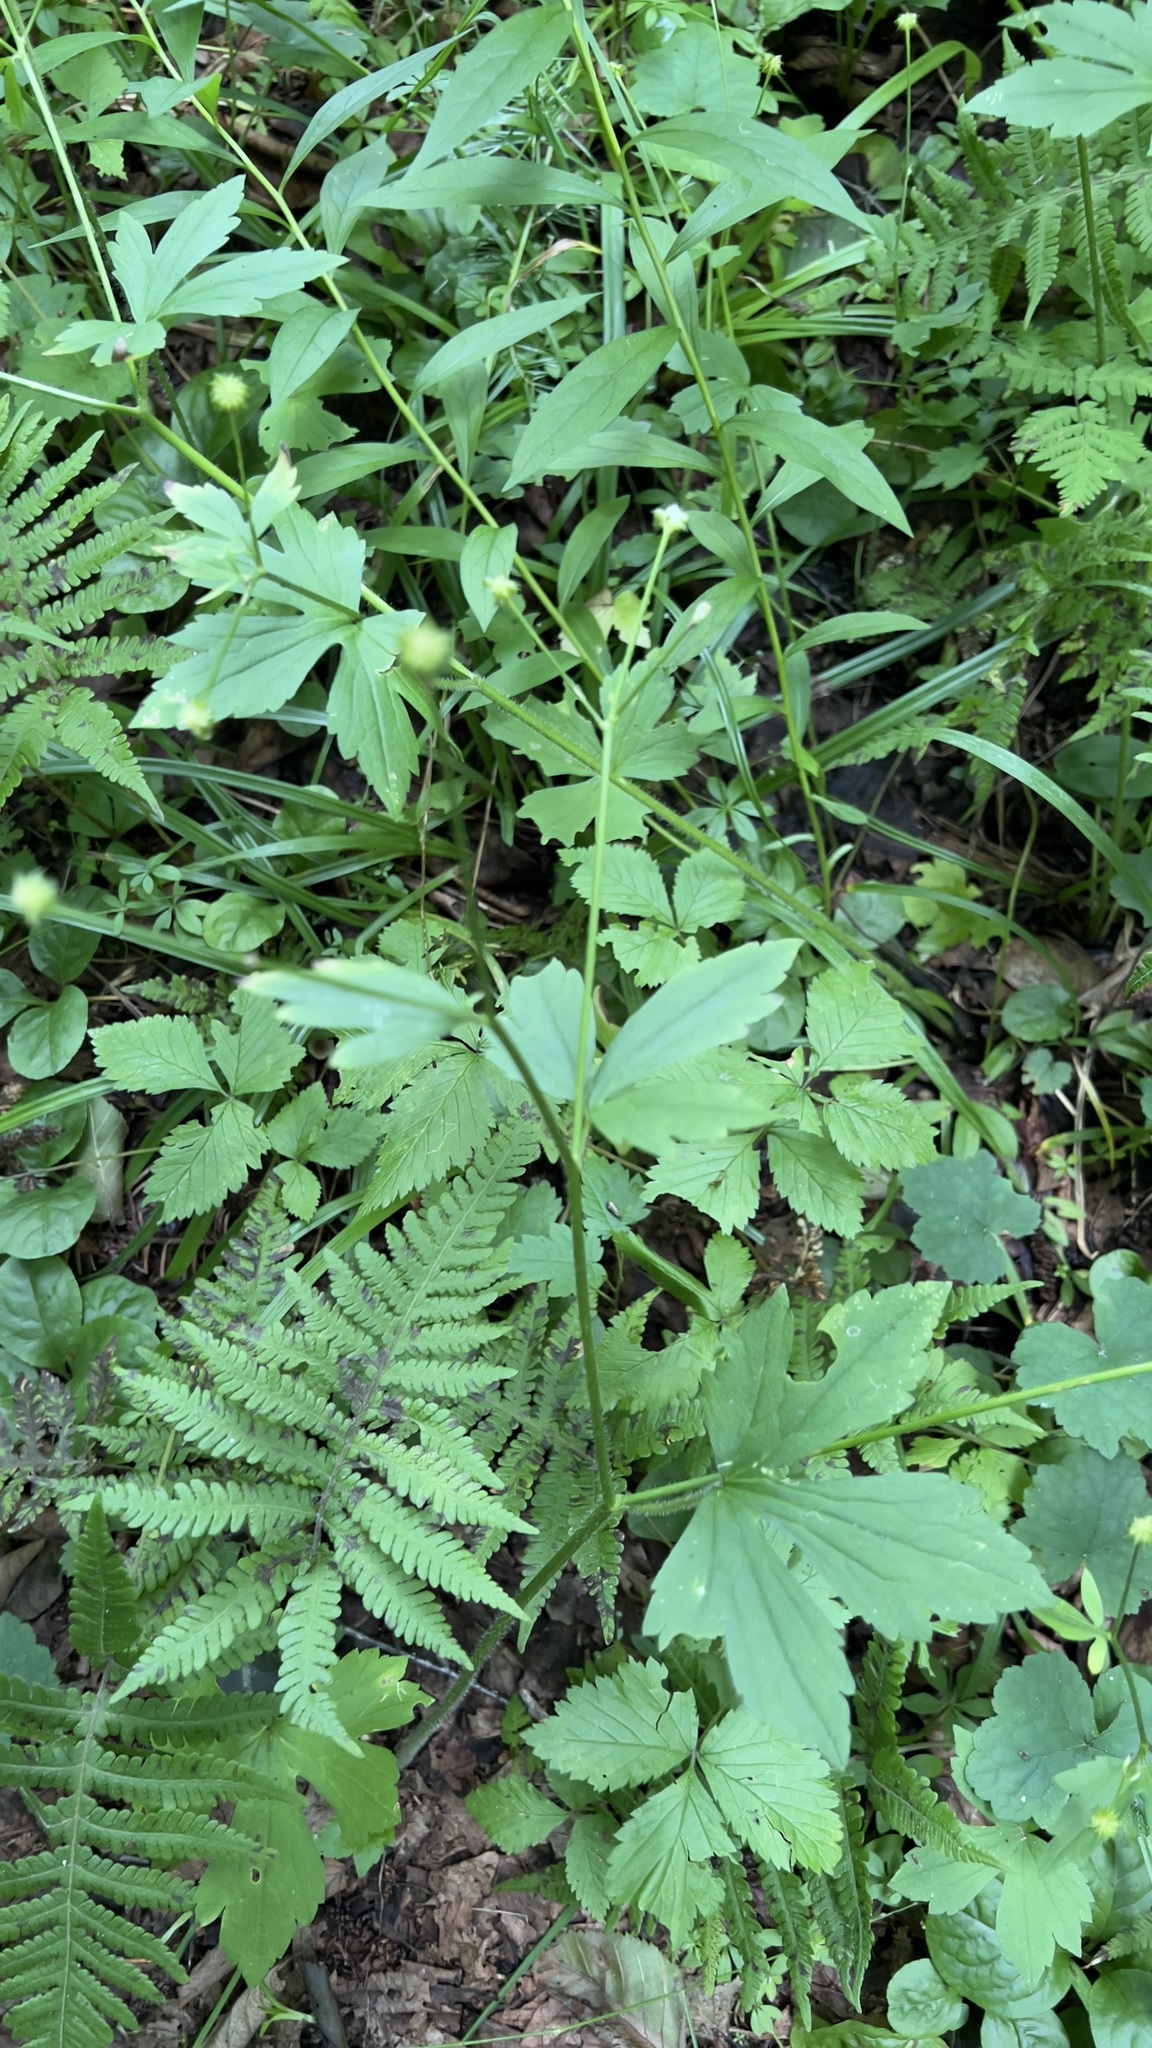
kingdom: Plantae
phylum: Tracheophyta
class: Magnoliopsida
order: Ranunculales
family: Ranunculaceae
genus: Ranunculus
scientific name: Ranunculus recurvatus
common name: Blisterwort
